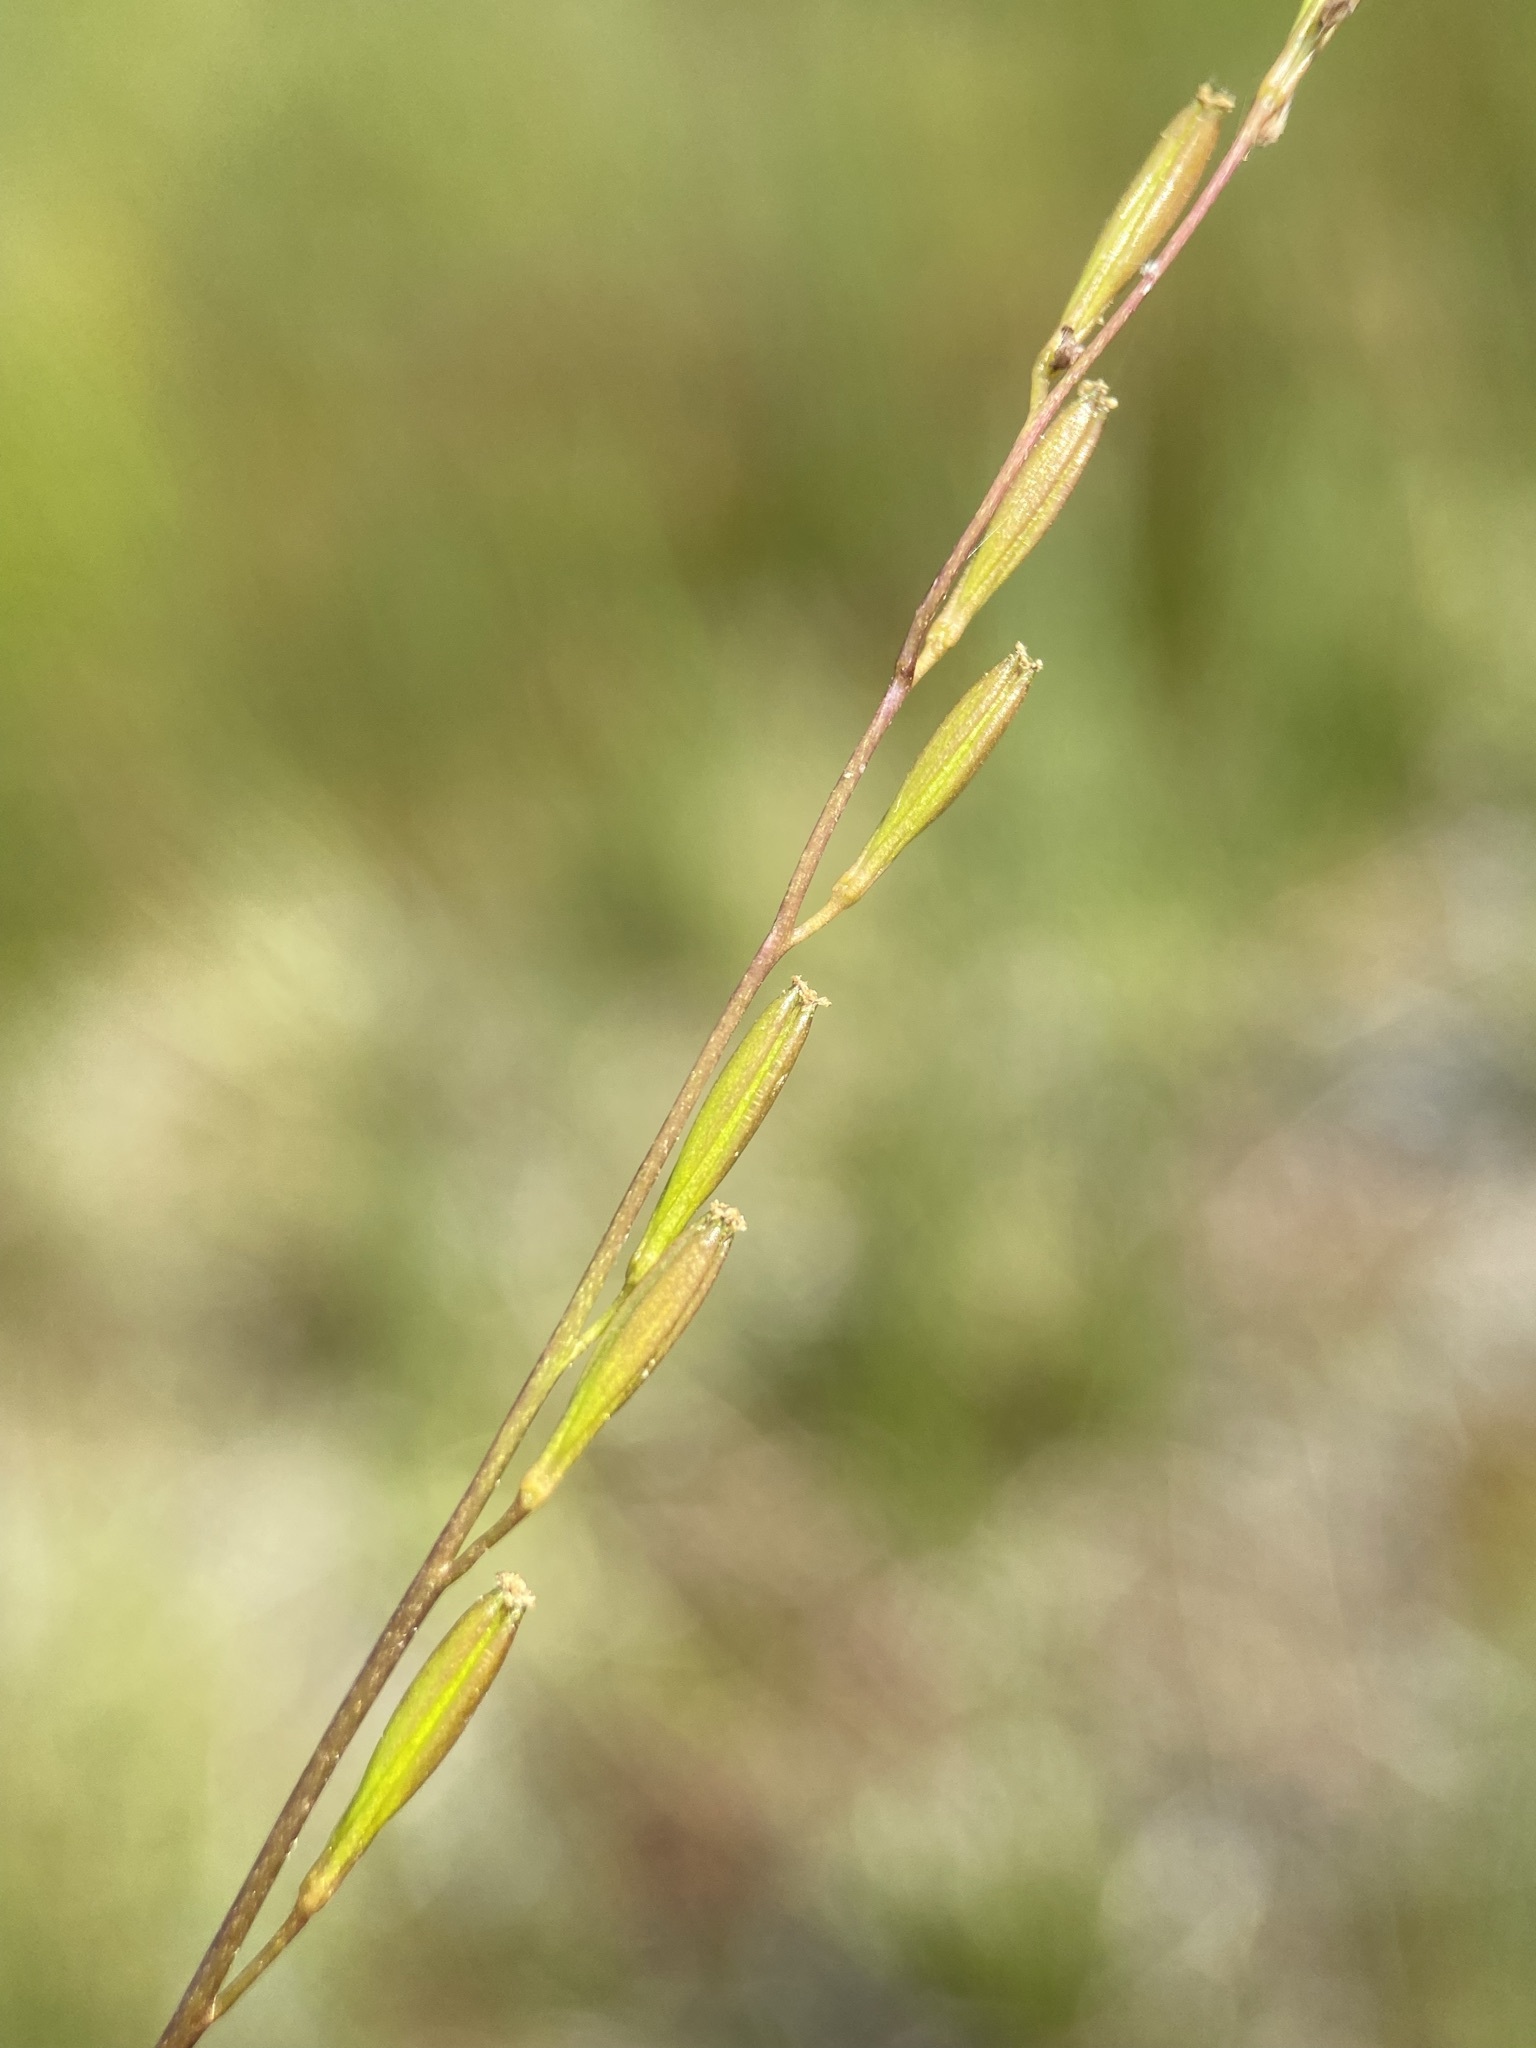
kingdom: Plantae
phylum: Tracheophyta
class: Liliopsida
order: Alismatales
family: Juncaginaceae
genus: Triglochin
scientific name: Triglochin palustris
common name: Marsh arrowgrass
